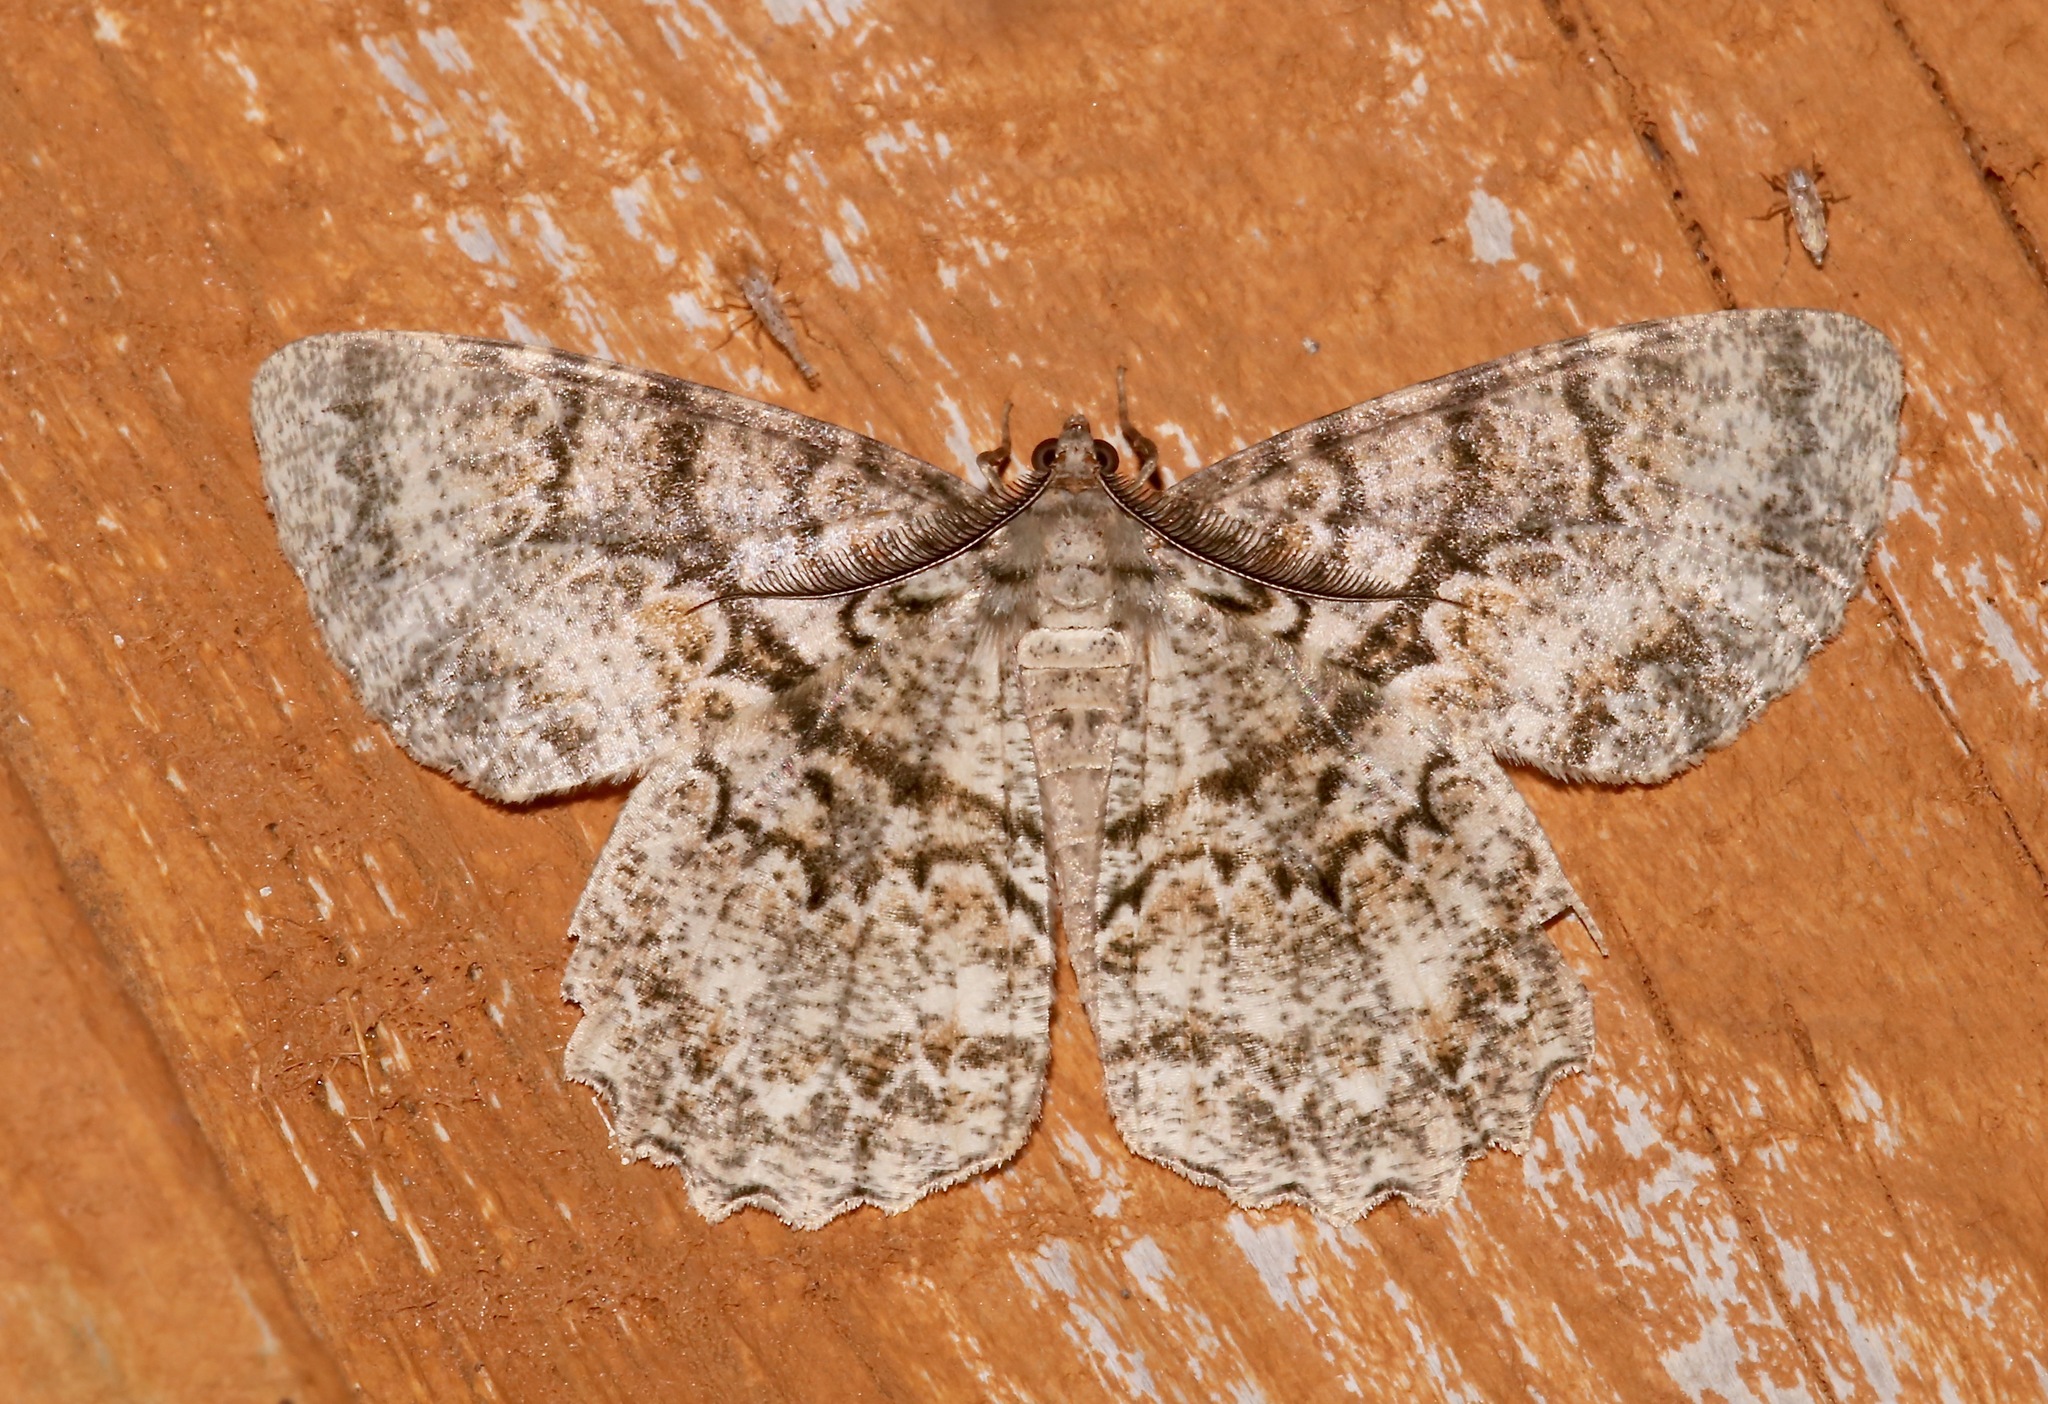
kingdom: Animalia
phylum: Arthropoda
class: Insecta
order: Lepidoptera
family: Geometridae
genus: Epimecis
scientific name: Epimecis hortaria
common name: Tulip-tree beauty
